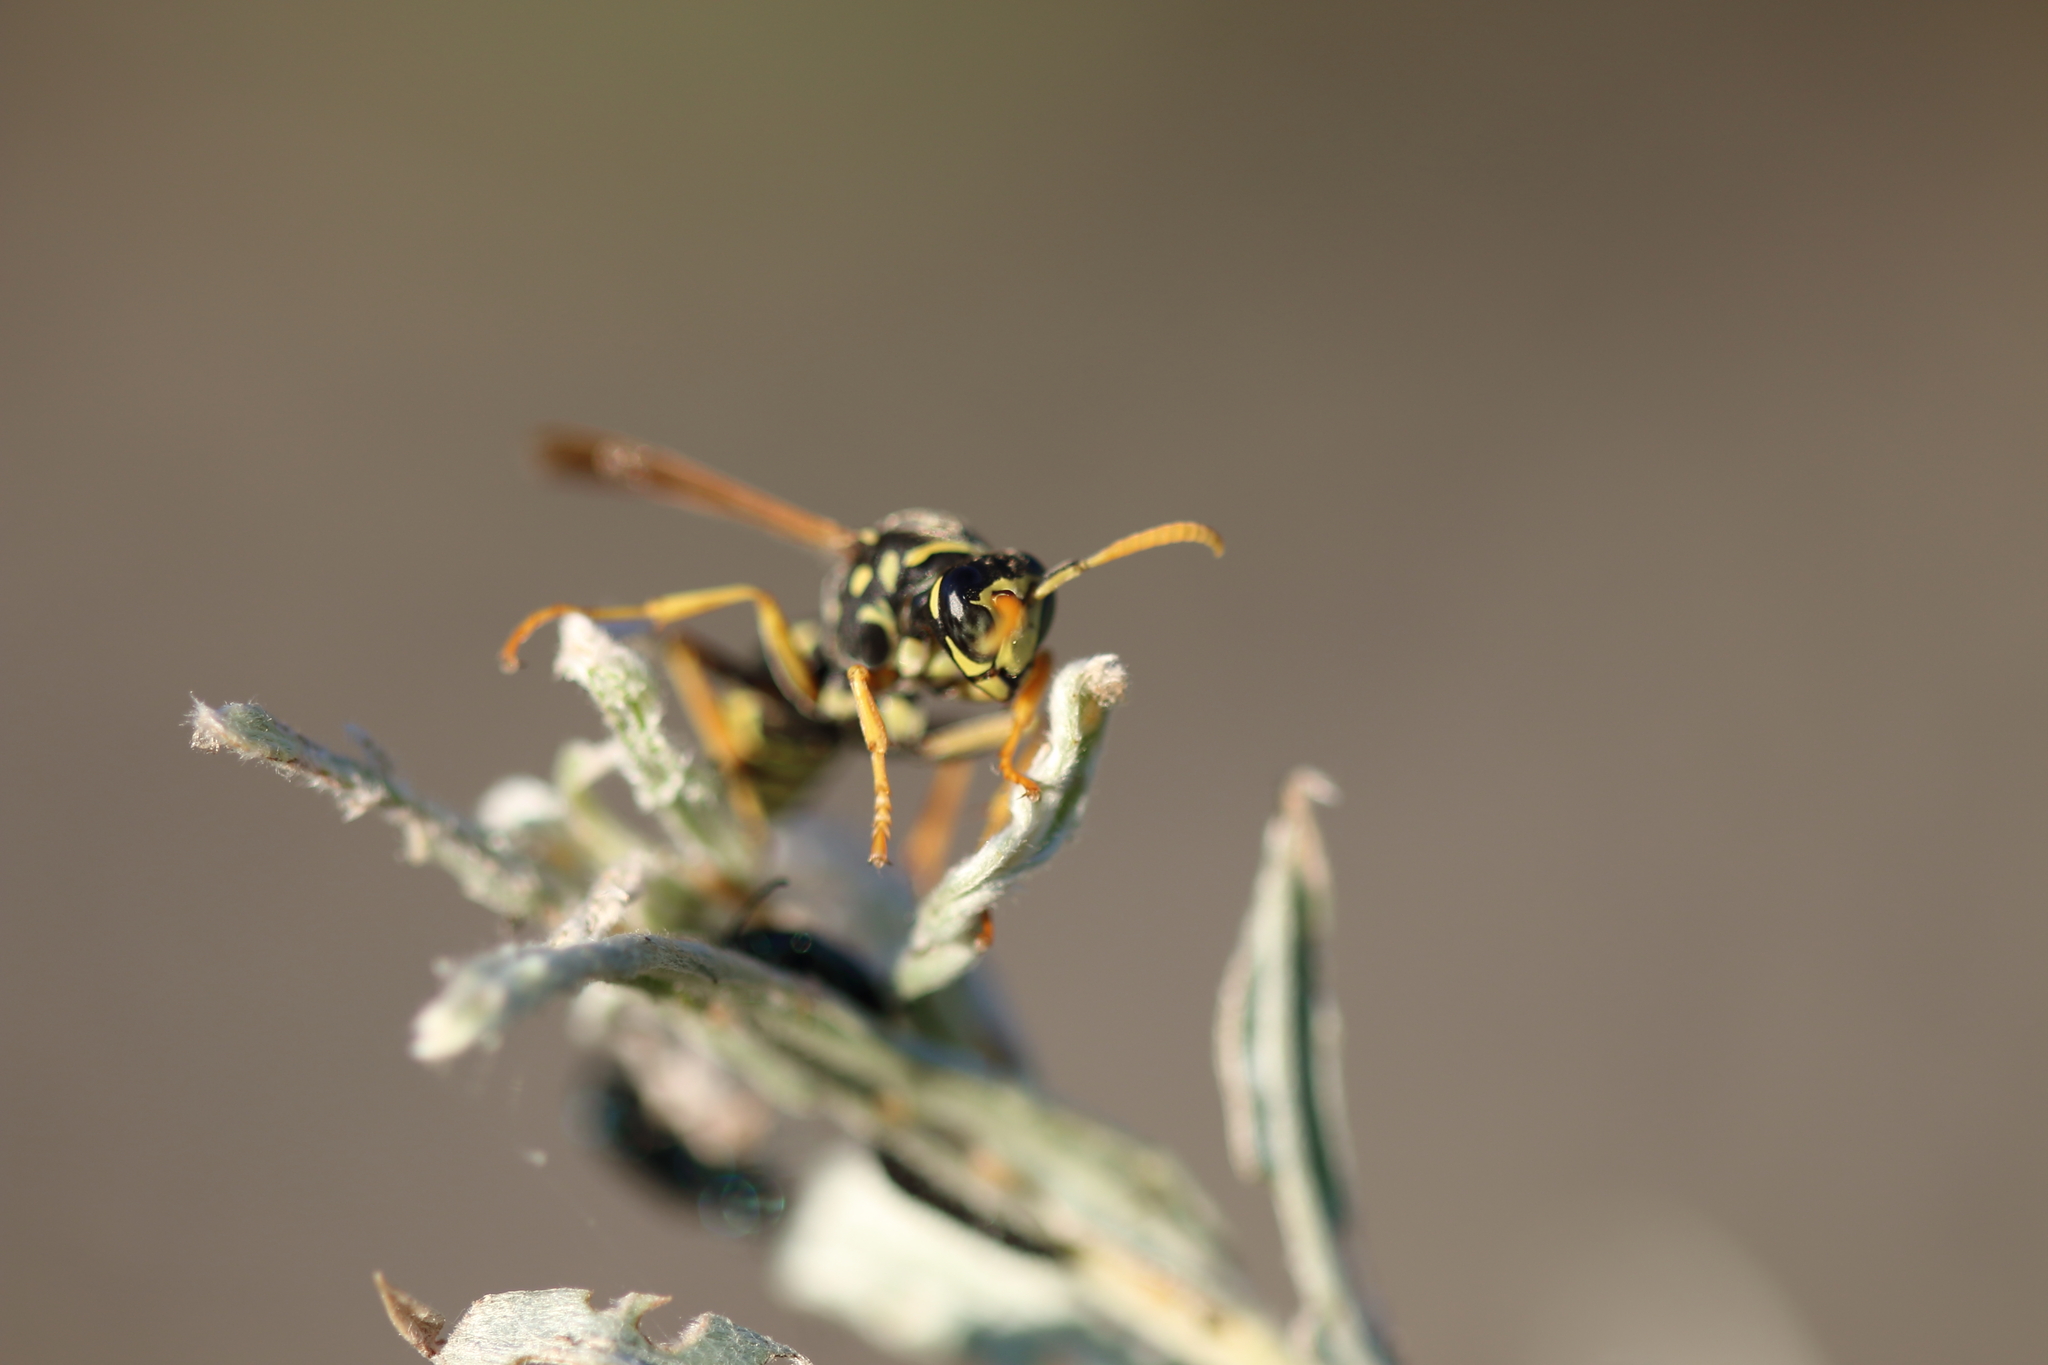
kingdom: Animalia
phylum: Arthropoda
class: Insecta
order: Hymenoptera
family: Eumenidae
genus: Polistes
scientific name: Polistes dominula
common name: Paper wasp
